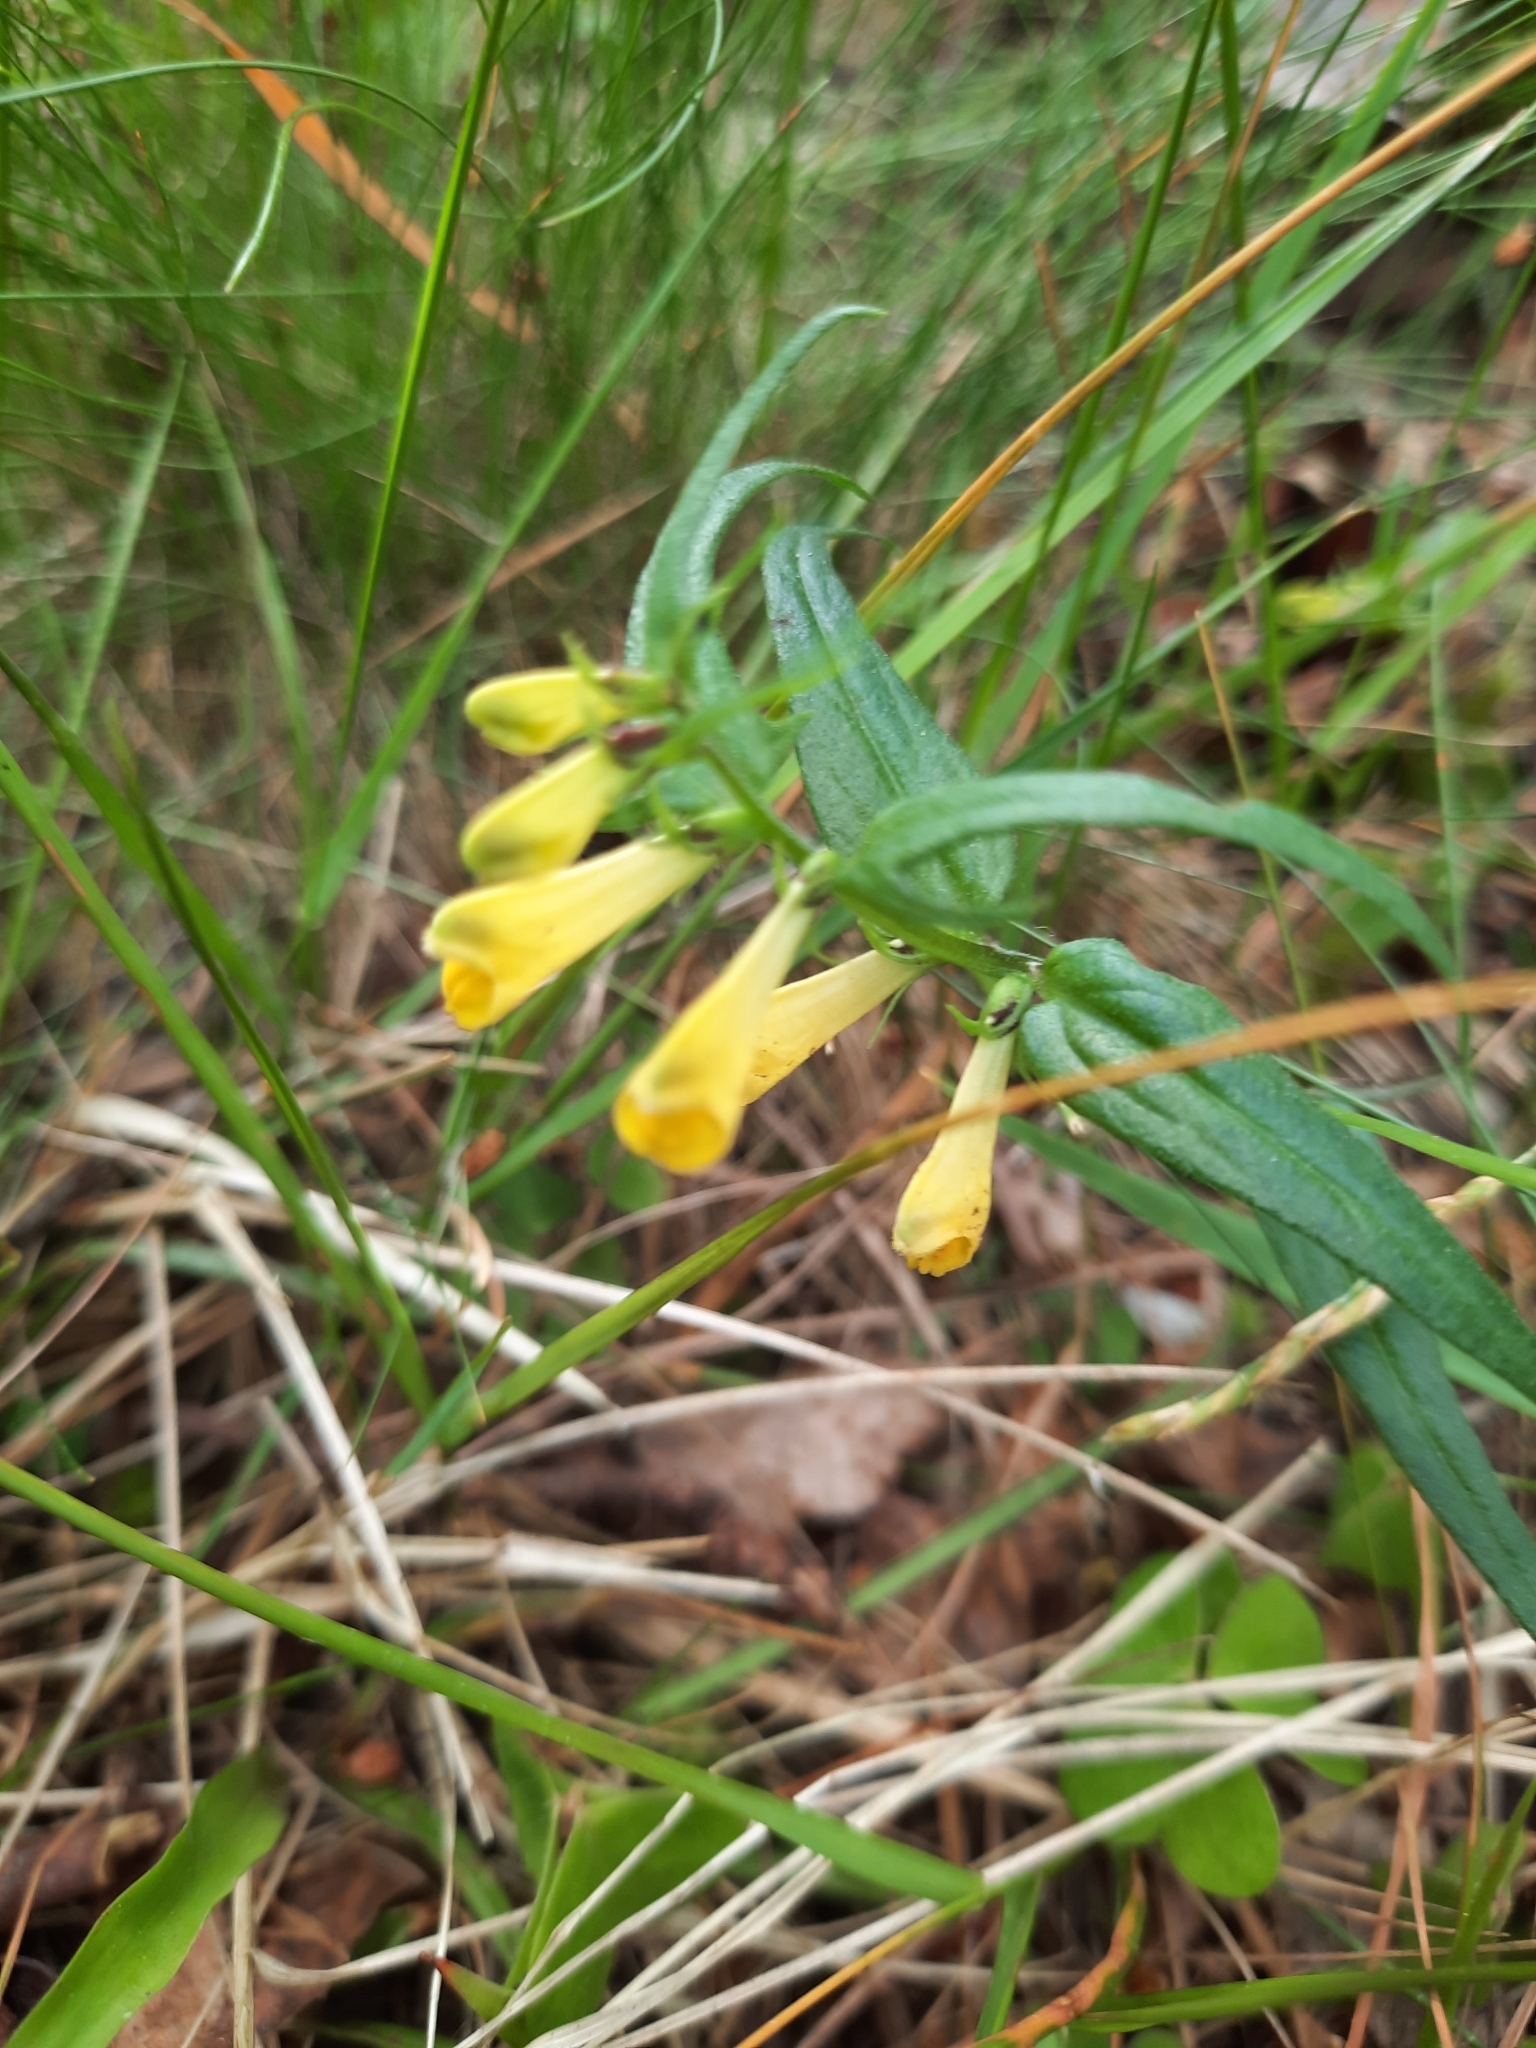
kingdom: Plantae
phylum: Tracheophyta
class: Magnoliopsida
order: Lamiales
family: Orobanchaceae
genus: Melampyrum
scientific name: Melampyrum pratense
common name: Common cow-wheat
